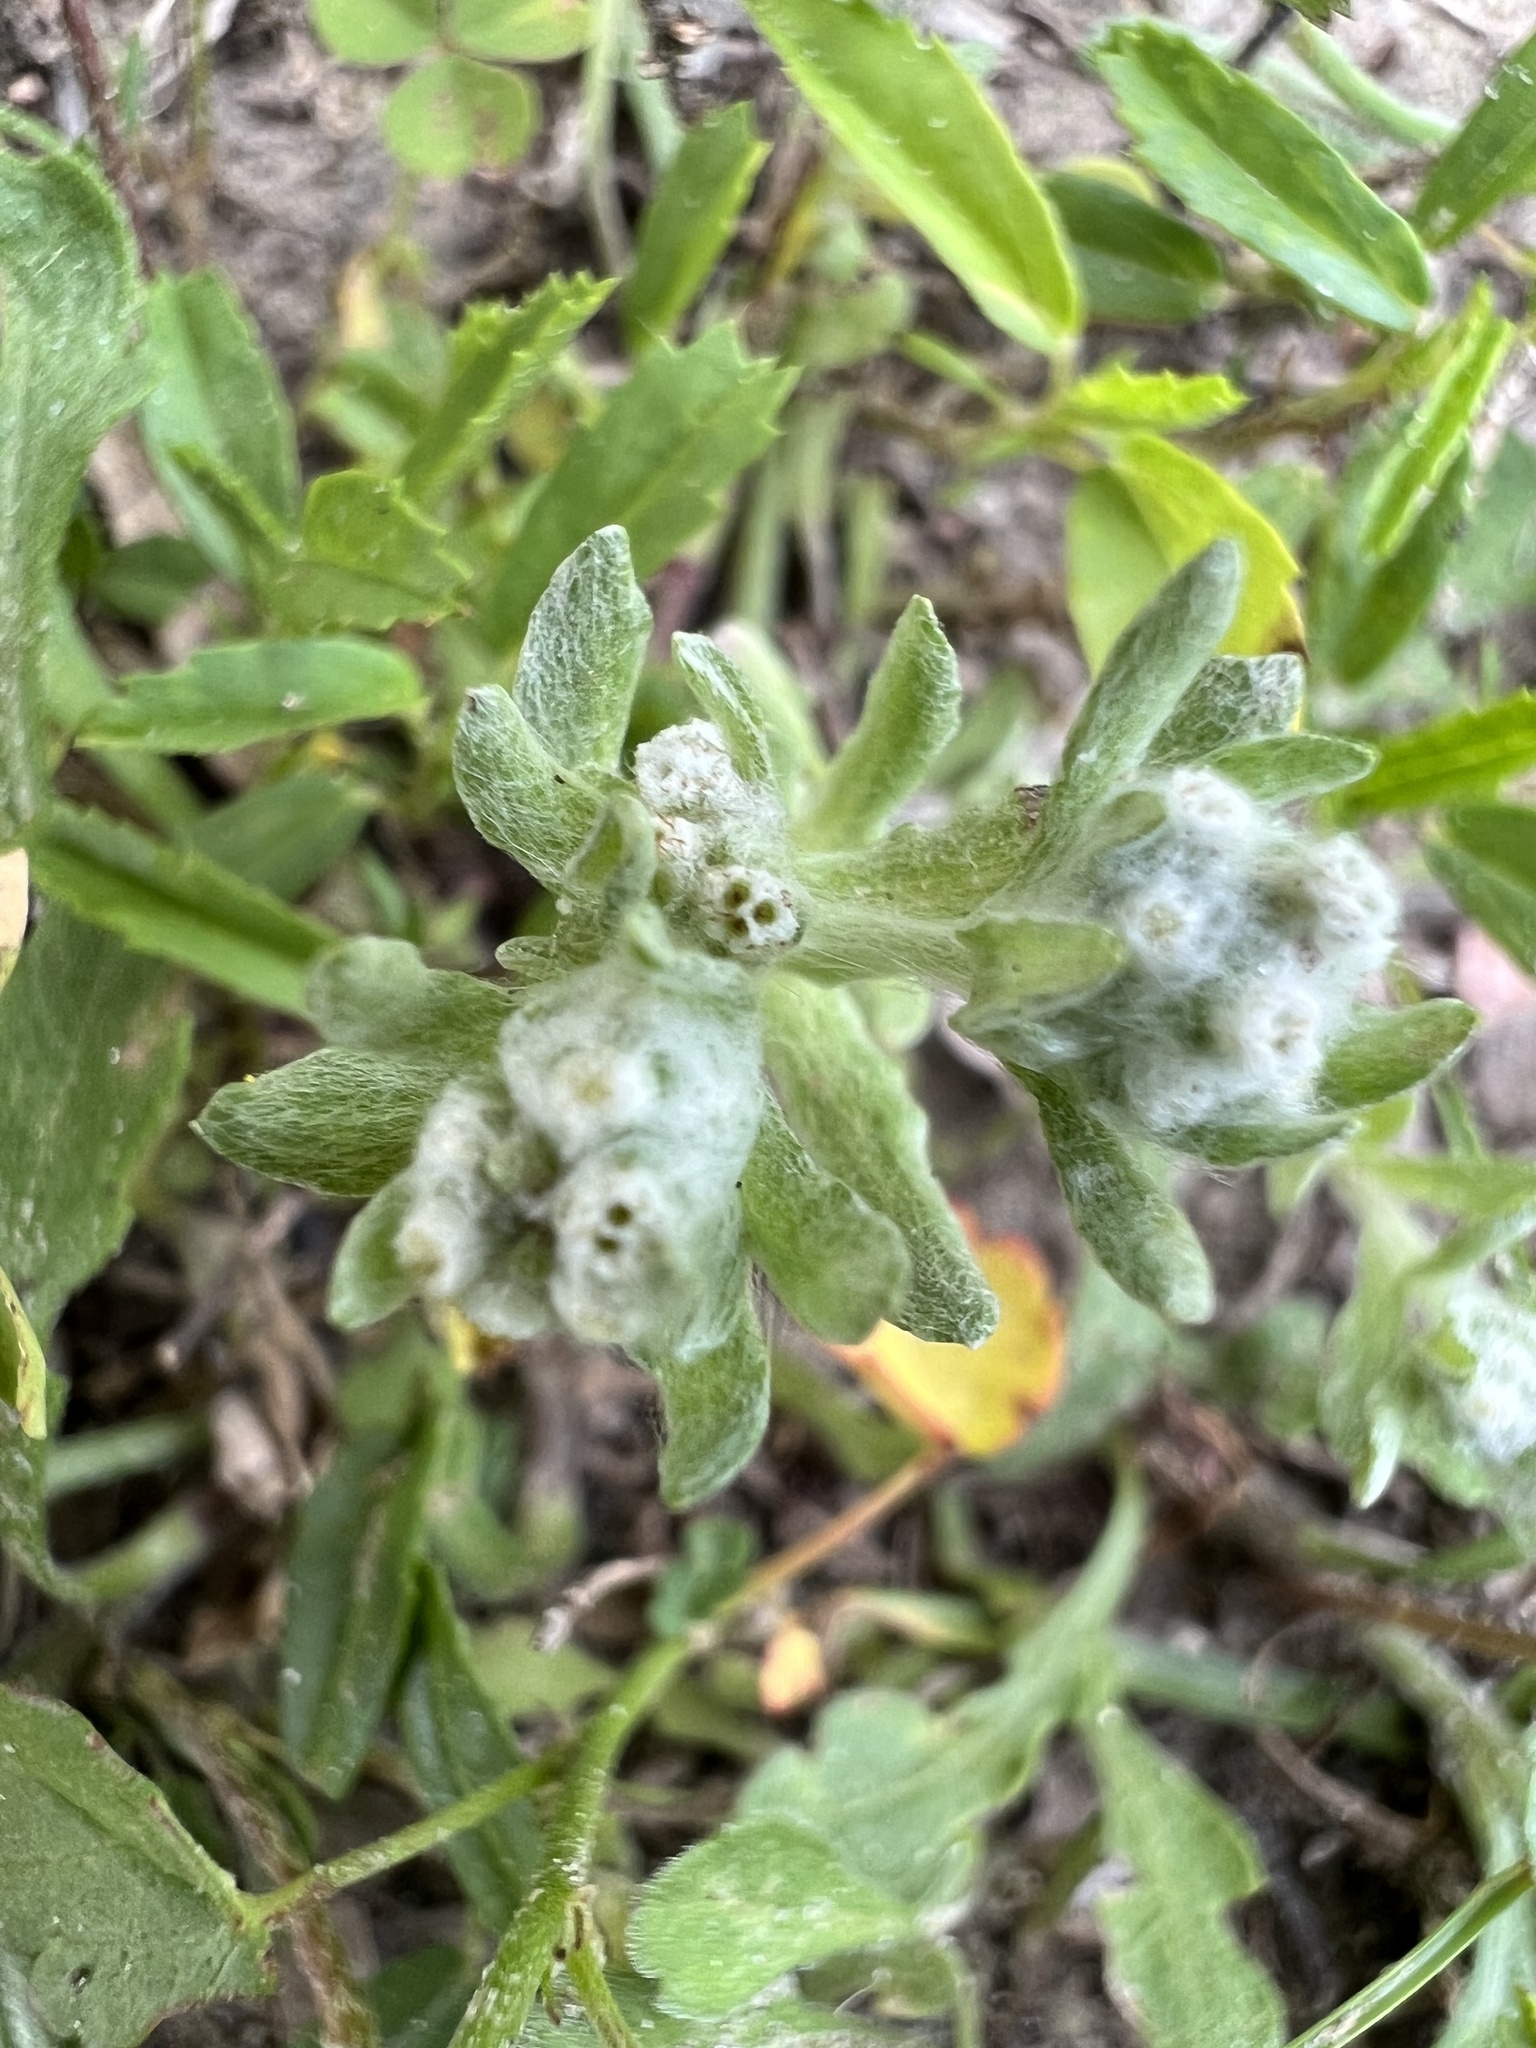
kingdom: Plantae
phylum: Tracheophyta
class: Magnoliopsida
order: Asterales
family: Asteraceae
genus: Diaperia
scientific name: Diaperia prolifera
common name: Big-head rabbit-tobacco
